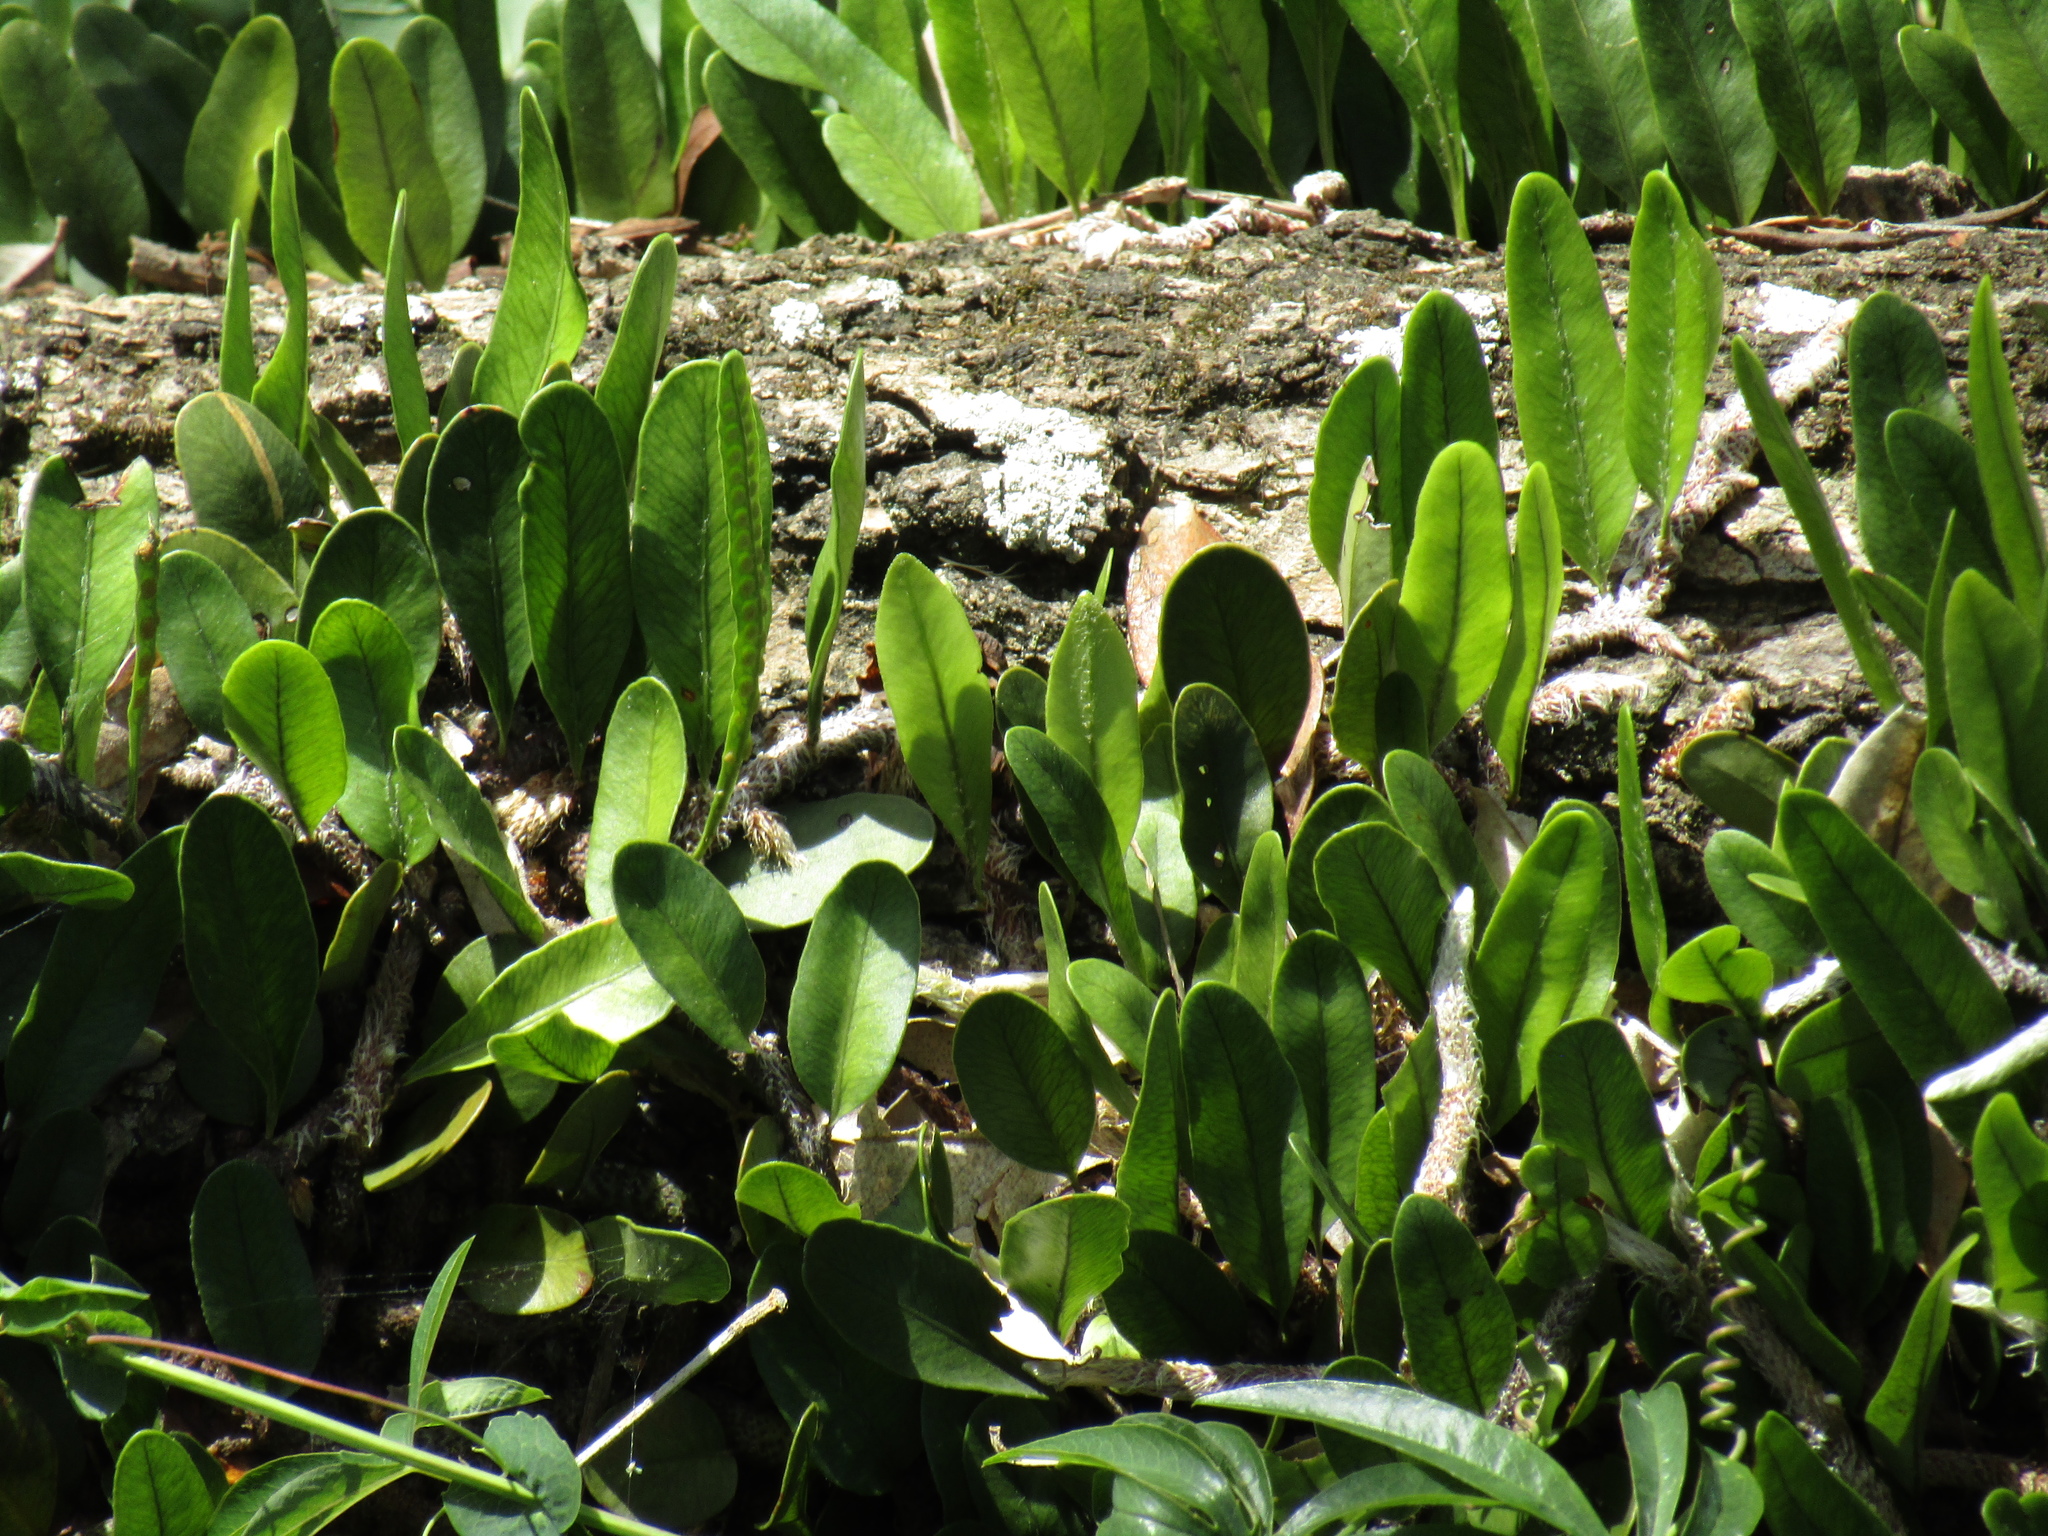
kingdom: Plantae
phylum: Tracheophyta
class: Polypodiopsida
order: Polypodiales
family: Polypodiaceae
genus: Microgramma
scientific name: Microgramma mortoniana
